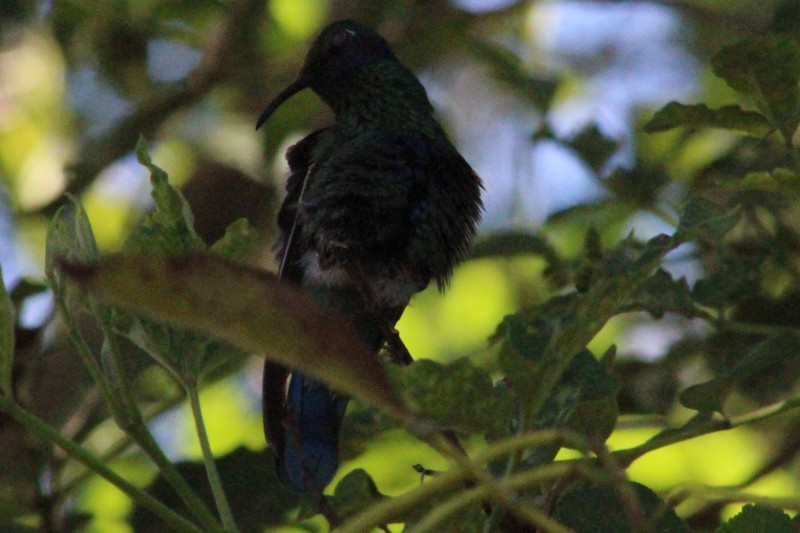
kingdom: Animalia
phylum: Chordata
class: Aves
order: Apodiformes
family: Trochilidae
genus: Colibri
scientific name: Colibri coruscans
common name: Sparkling violetear
